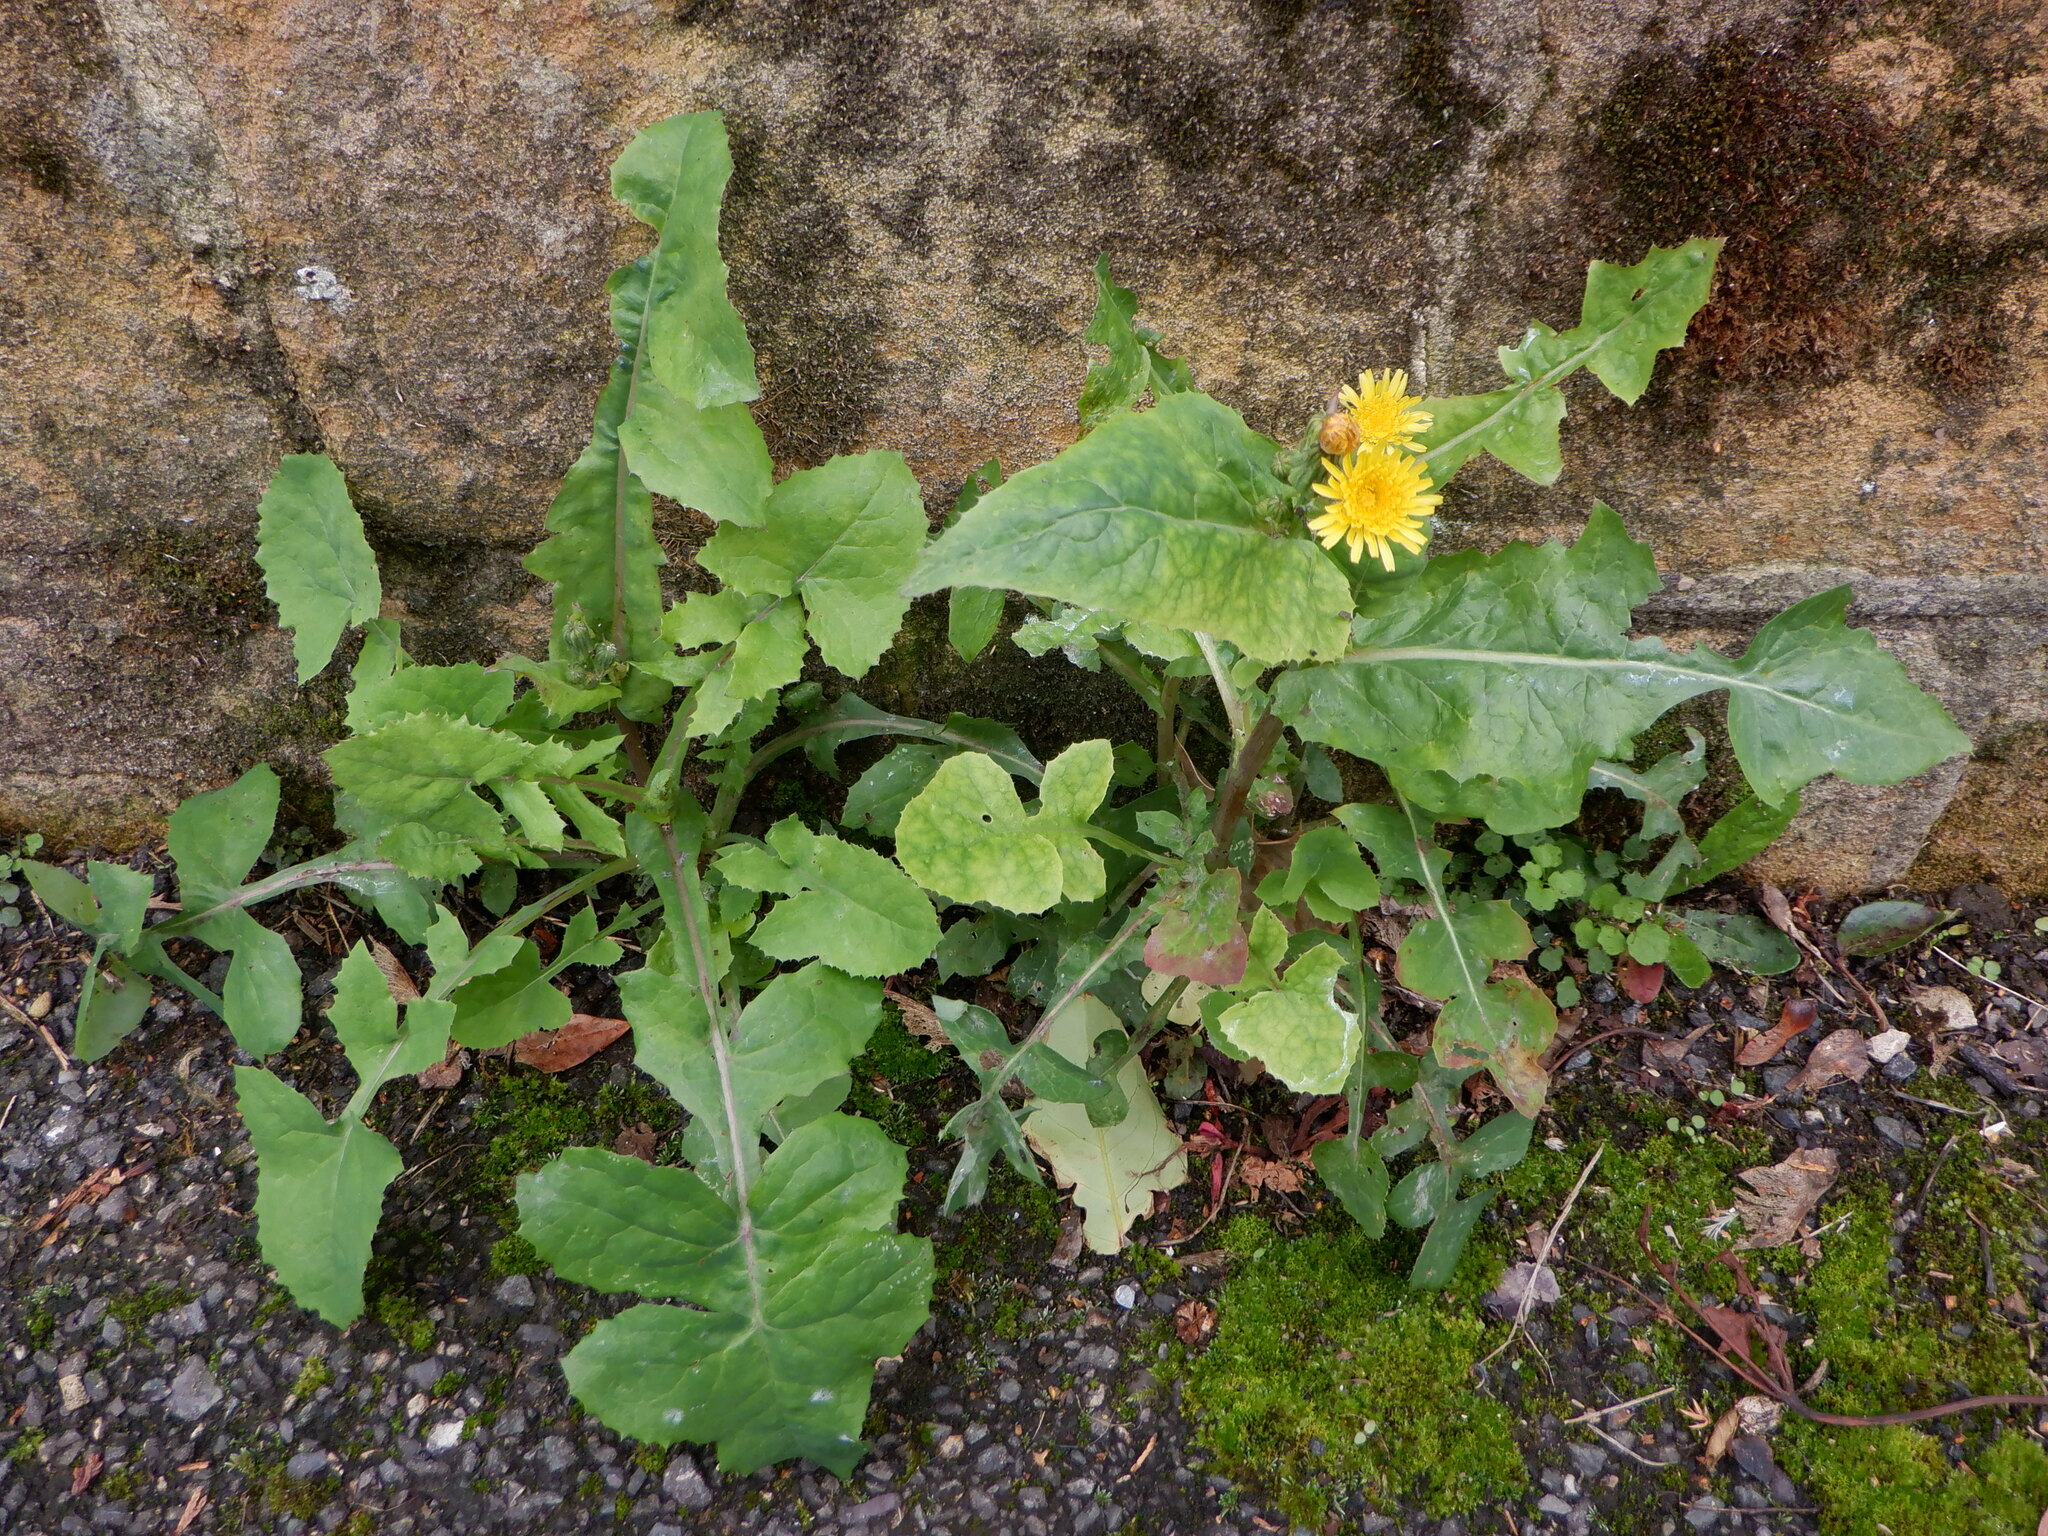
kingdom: Plantae
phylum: Tracheophyta
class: Magnoliopsida
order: Asterales
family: Asteraceae
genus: Sonchus
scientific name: Sonchus oleraceus
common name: Common sowthistle
